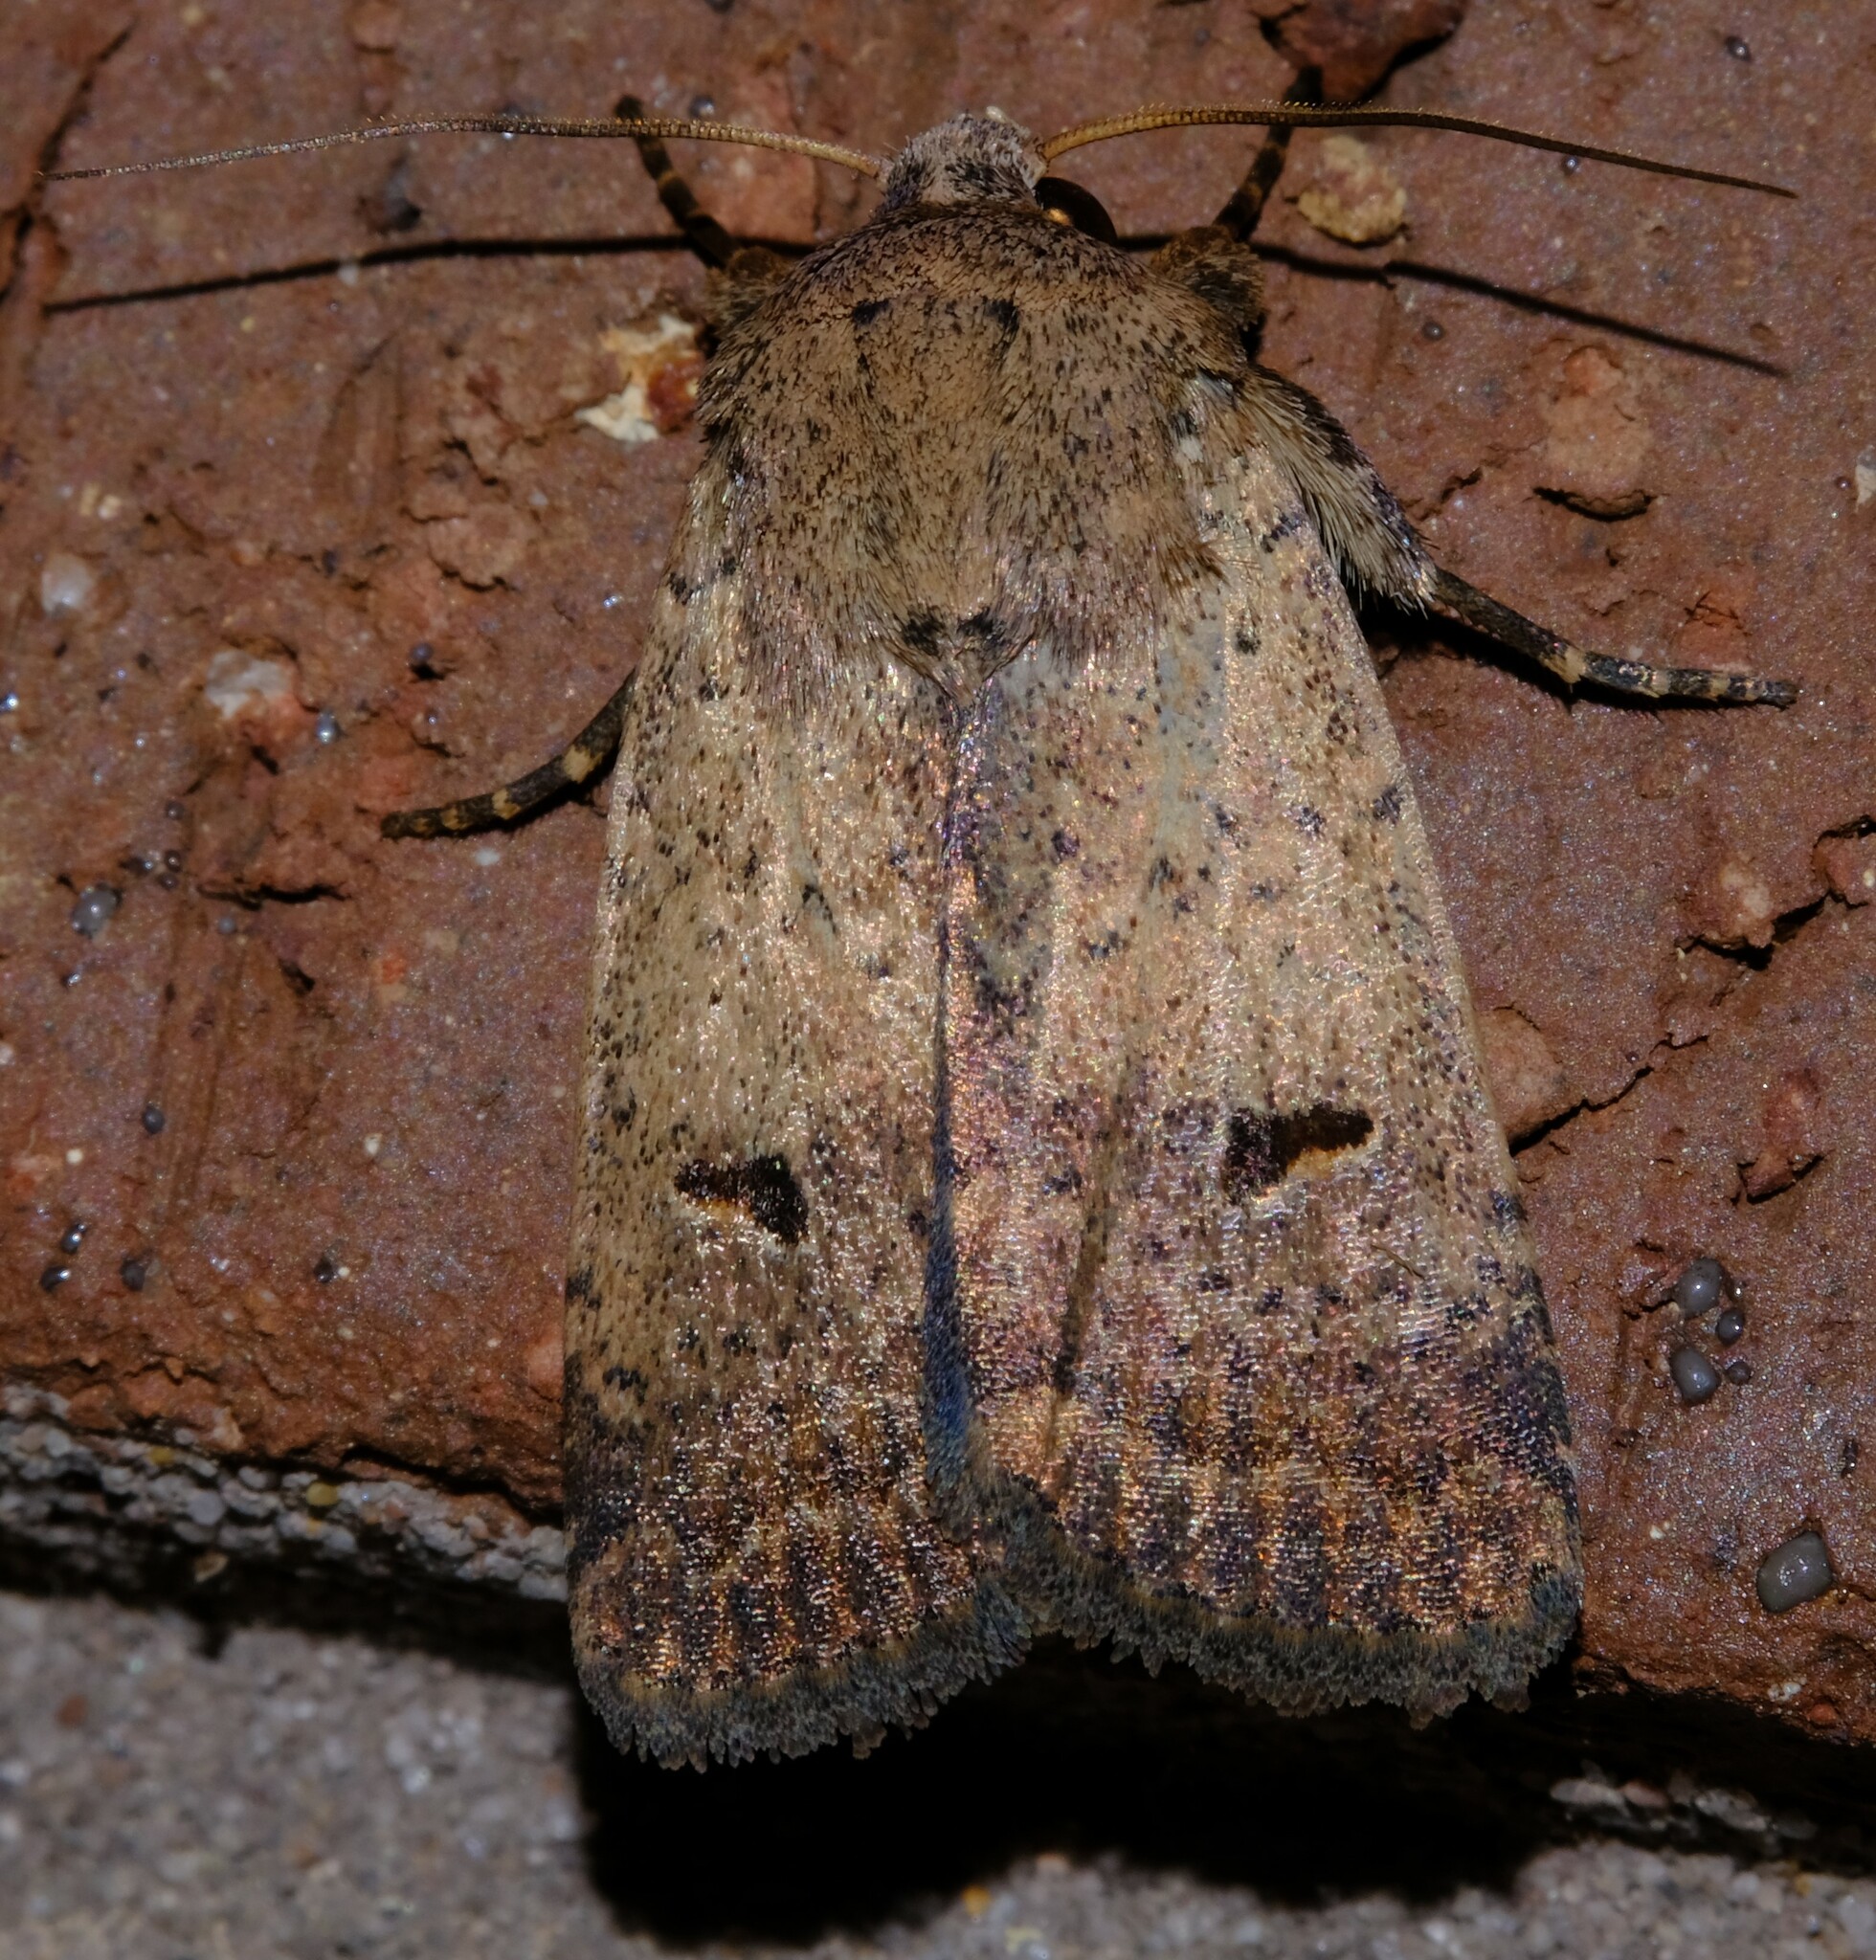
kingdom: Animalia
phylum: Arthropoda
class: Insecta
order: Lepidoptera
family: Noctuidae
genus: Proteuxoa
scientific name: Proteuxoa hypochalchis
